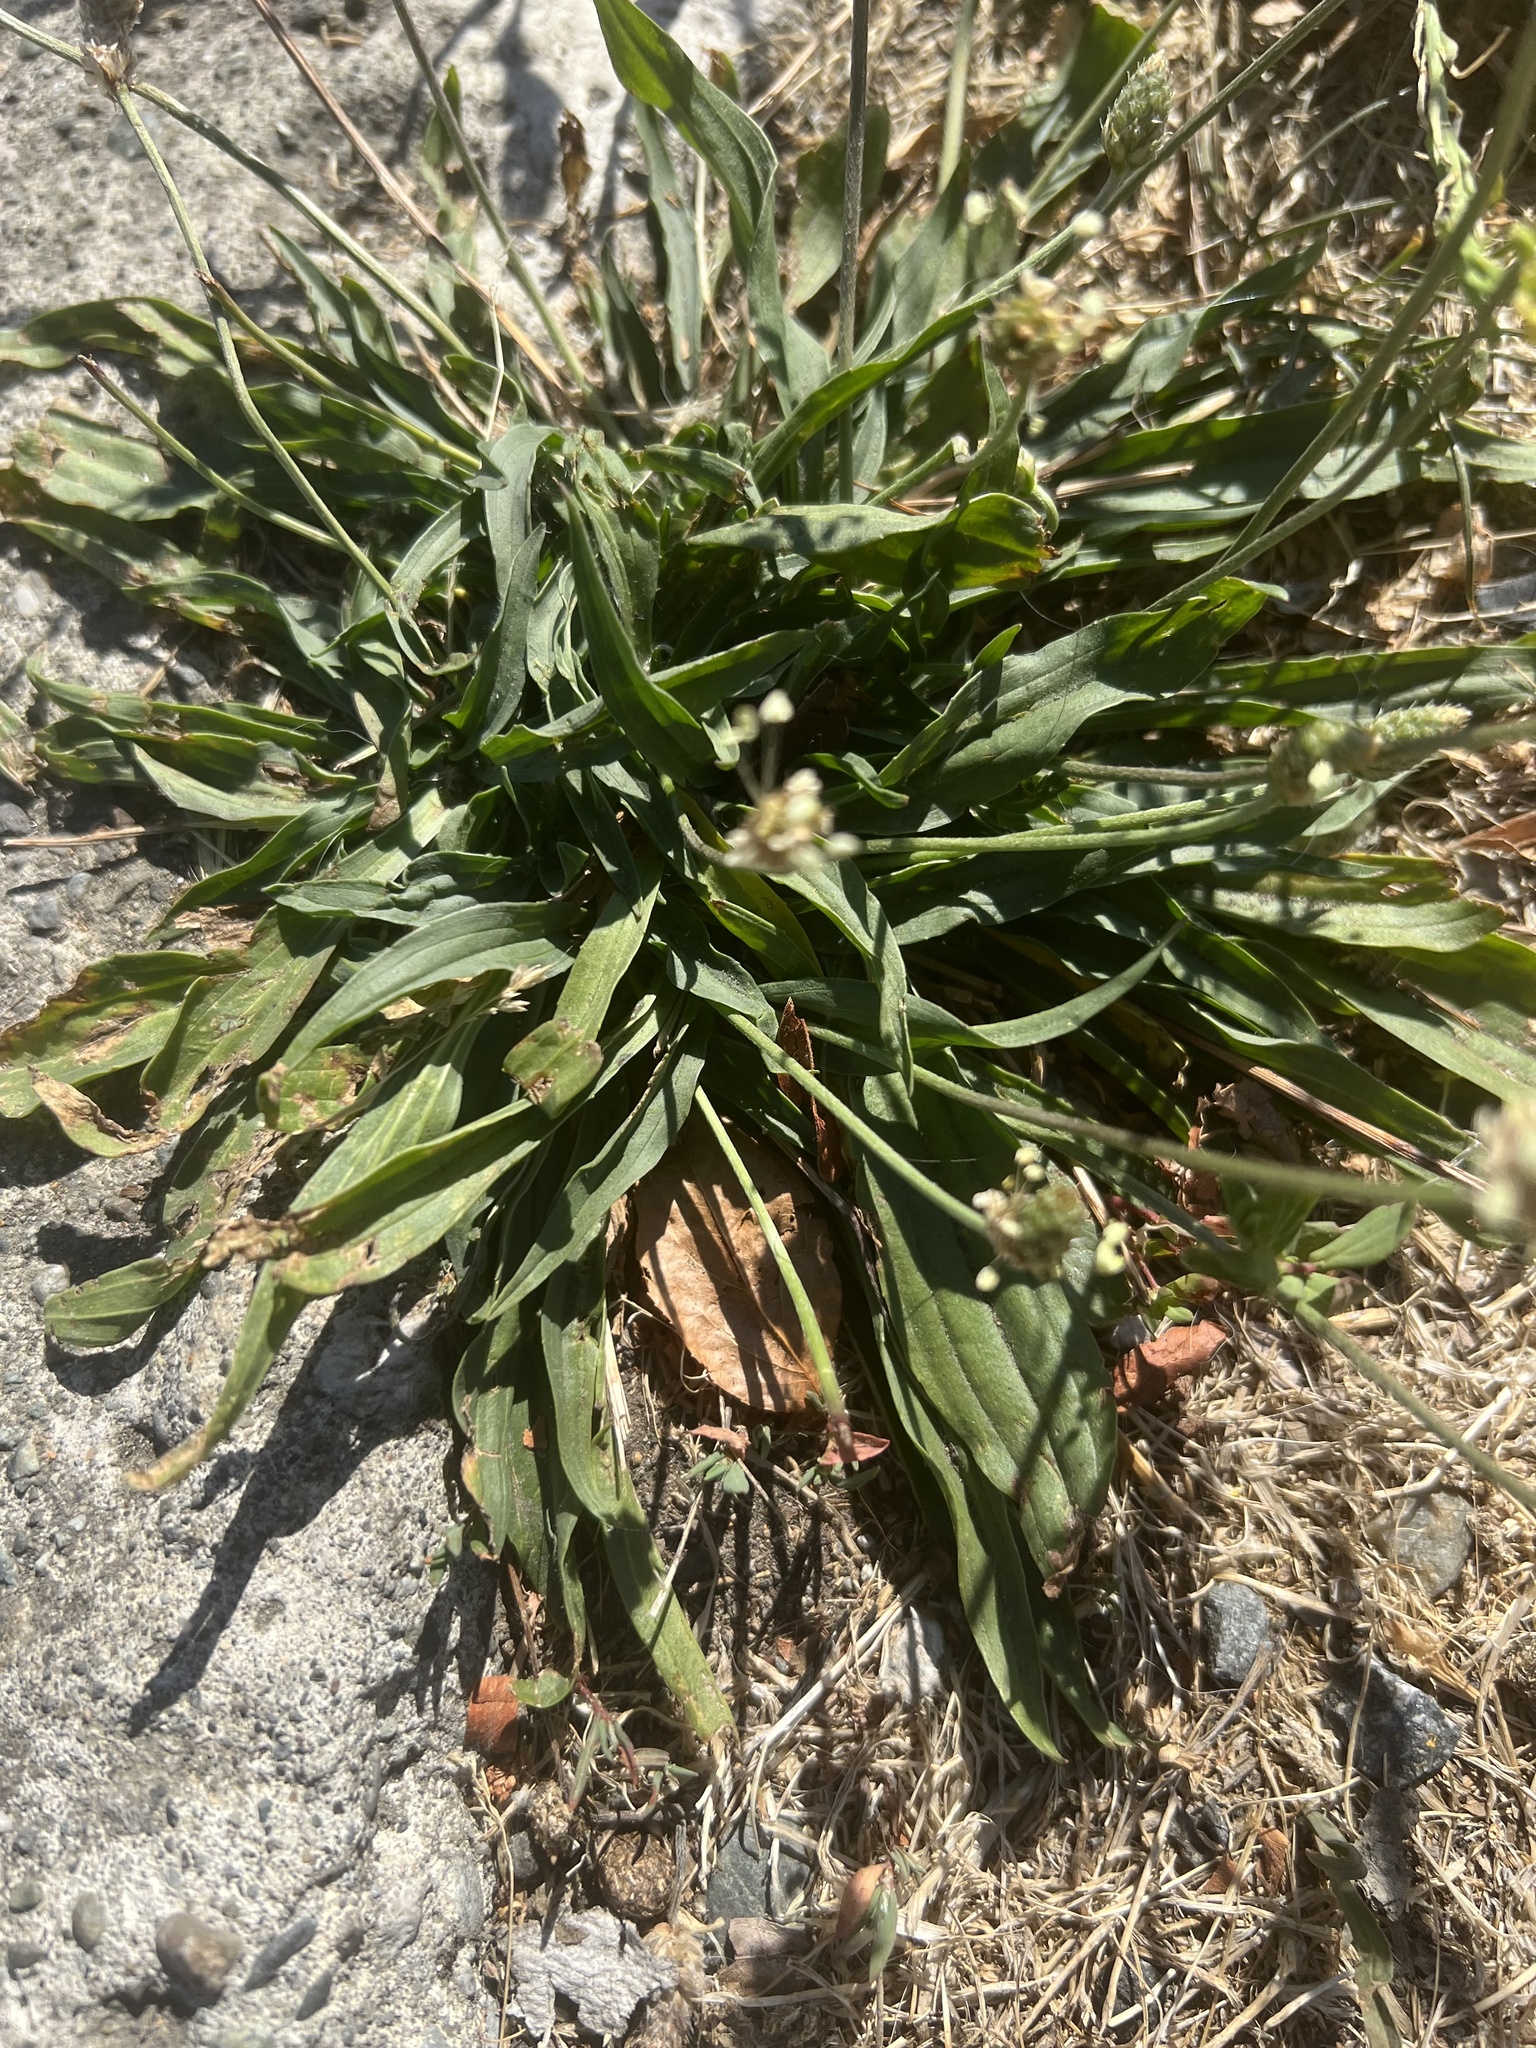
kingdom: Plantae
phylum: Tracheophyta
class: Magnoliopsida
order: Lamiales
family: Plantaginaceae
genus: Plantago
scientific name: Plantago lanceolata
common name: Ribwort plantain
